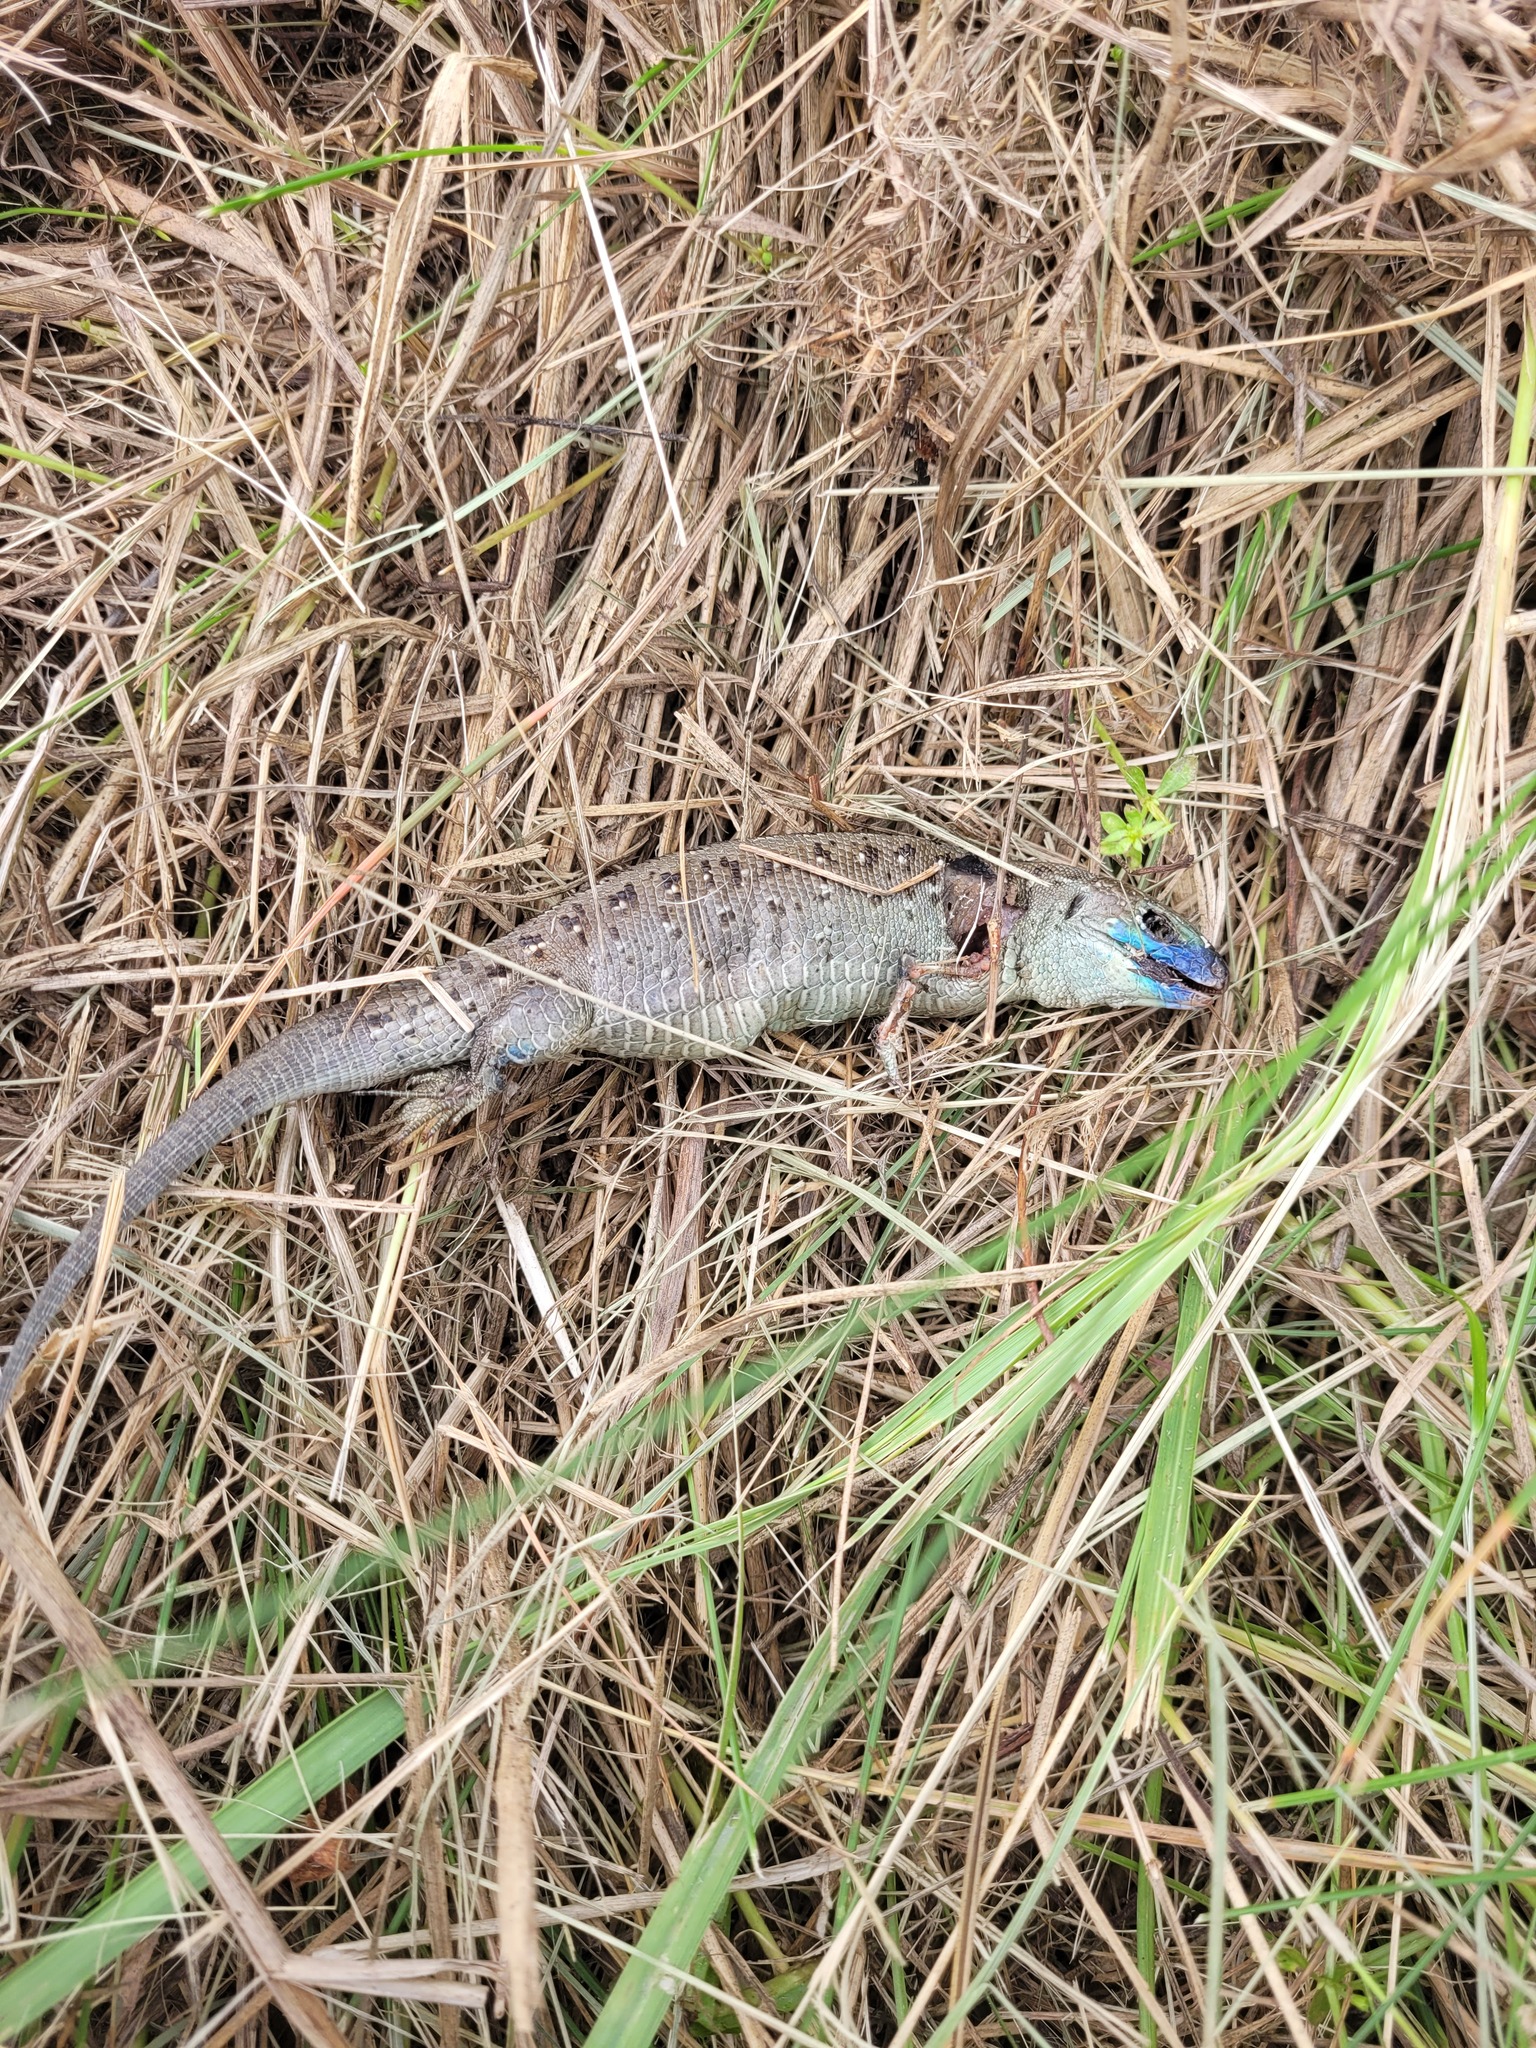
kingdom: Animalia
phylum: Chordata
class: Squamata
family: Lacertidae
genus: Lacerta
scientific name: Lacerta agilis
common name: Sand lizard
